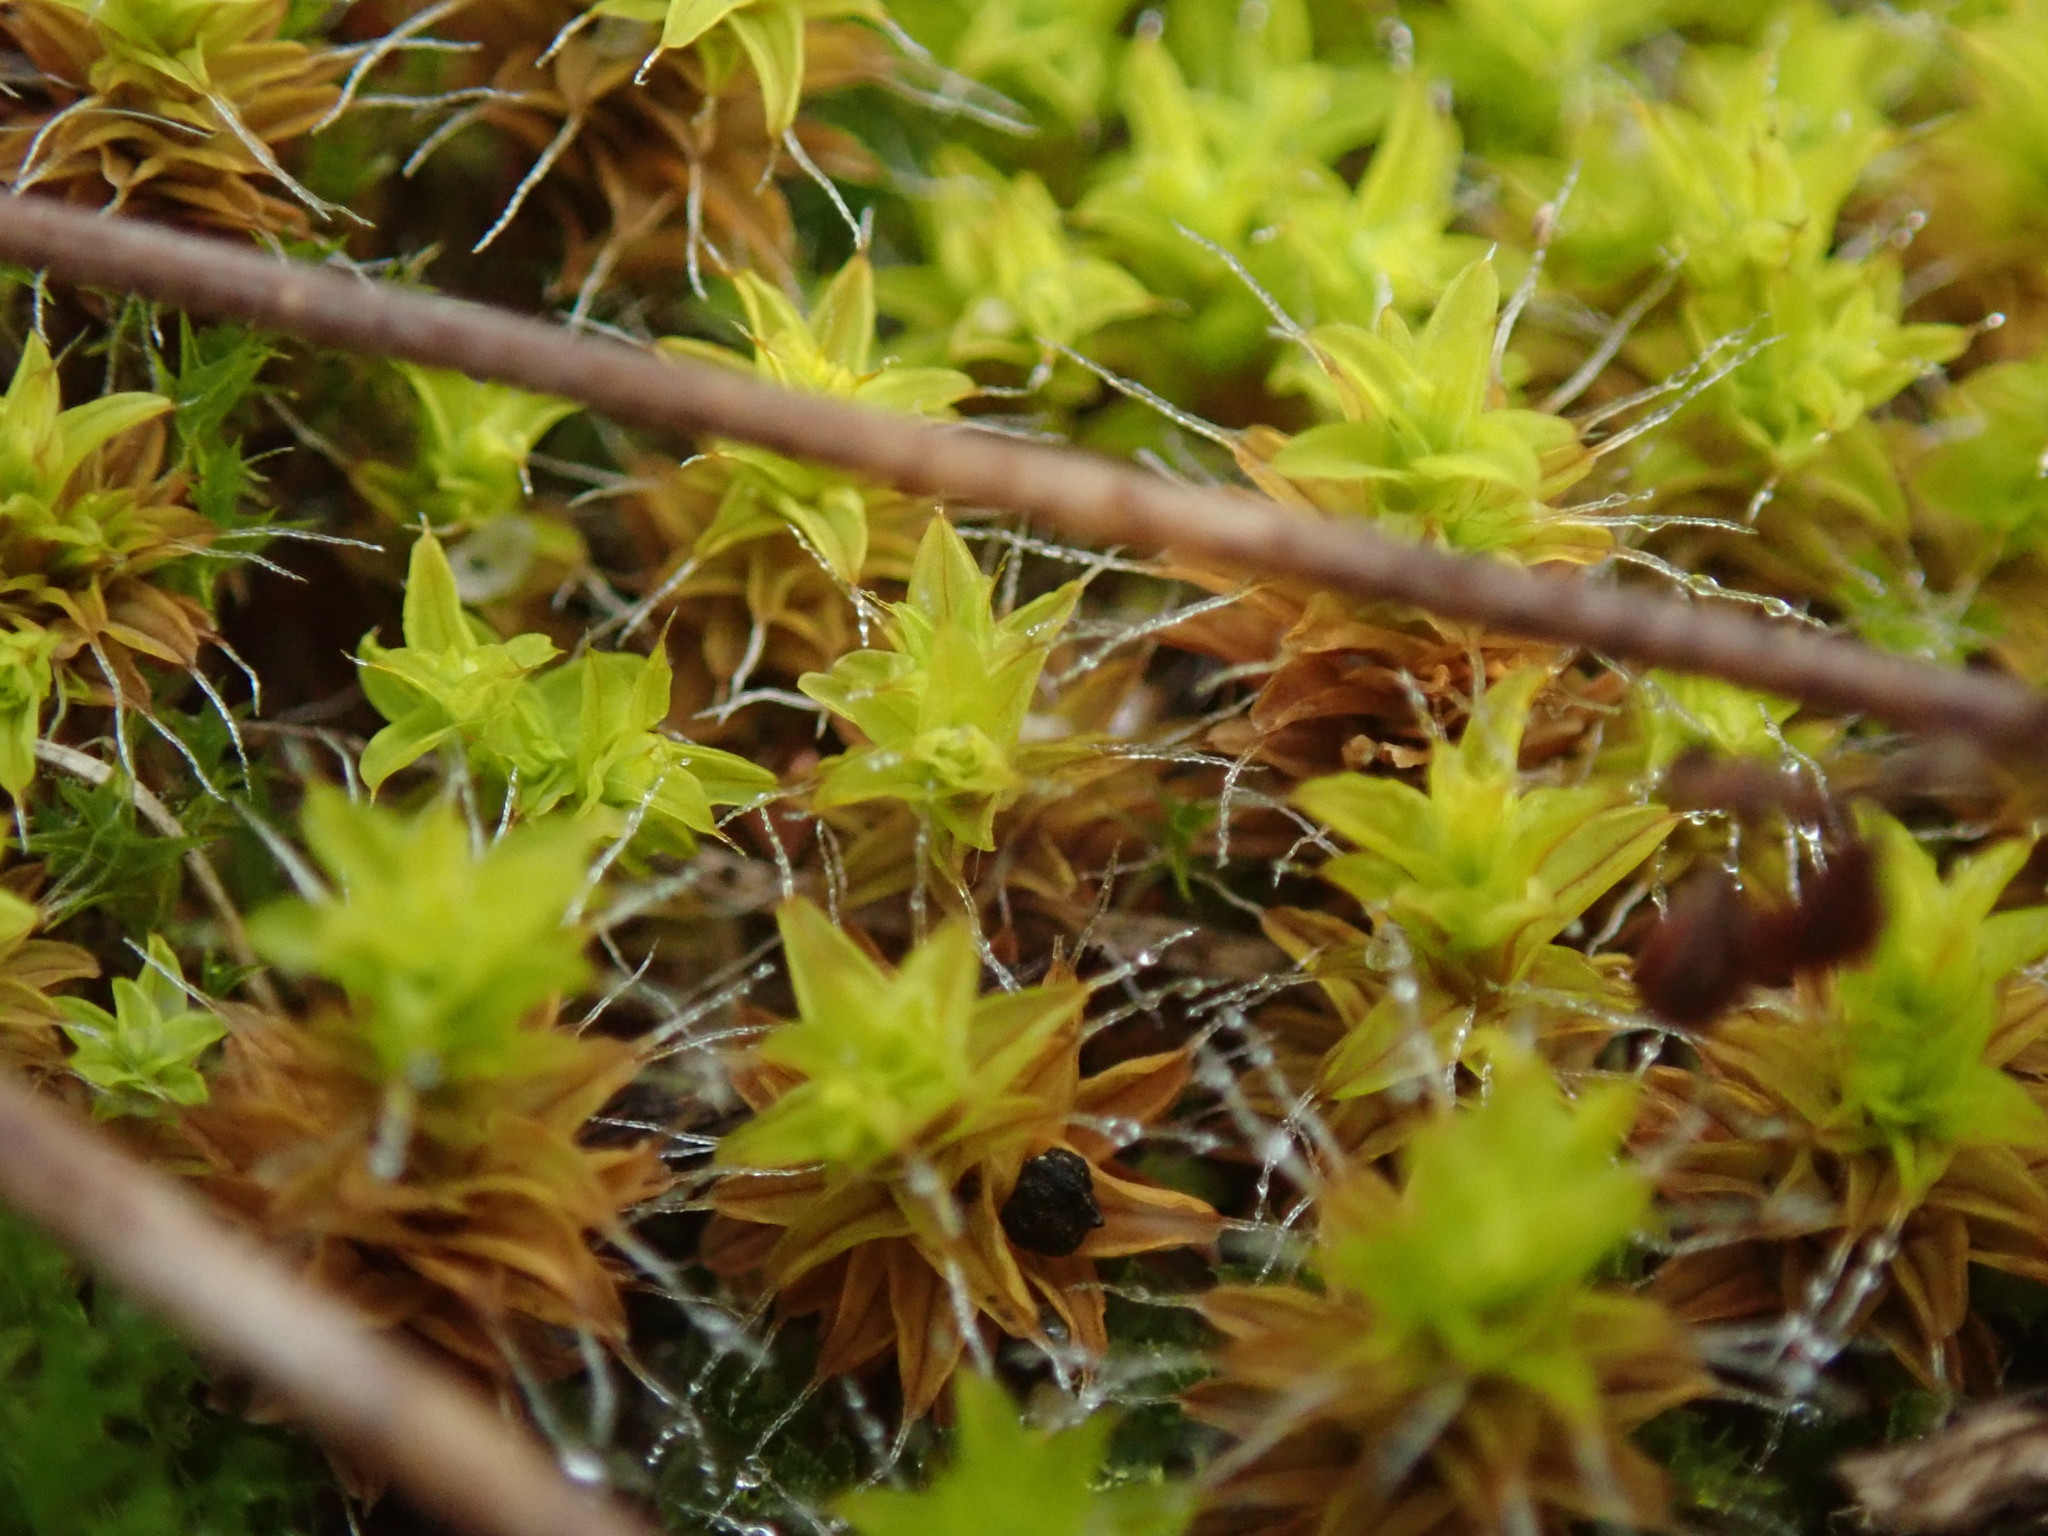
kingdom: Plantae
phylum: Bryophyta
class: Bryopsida
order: Pottiales
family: Pottiaceae
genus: Syntrichia
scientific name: Syntrichia princeps
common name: Brown screw-moss
